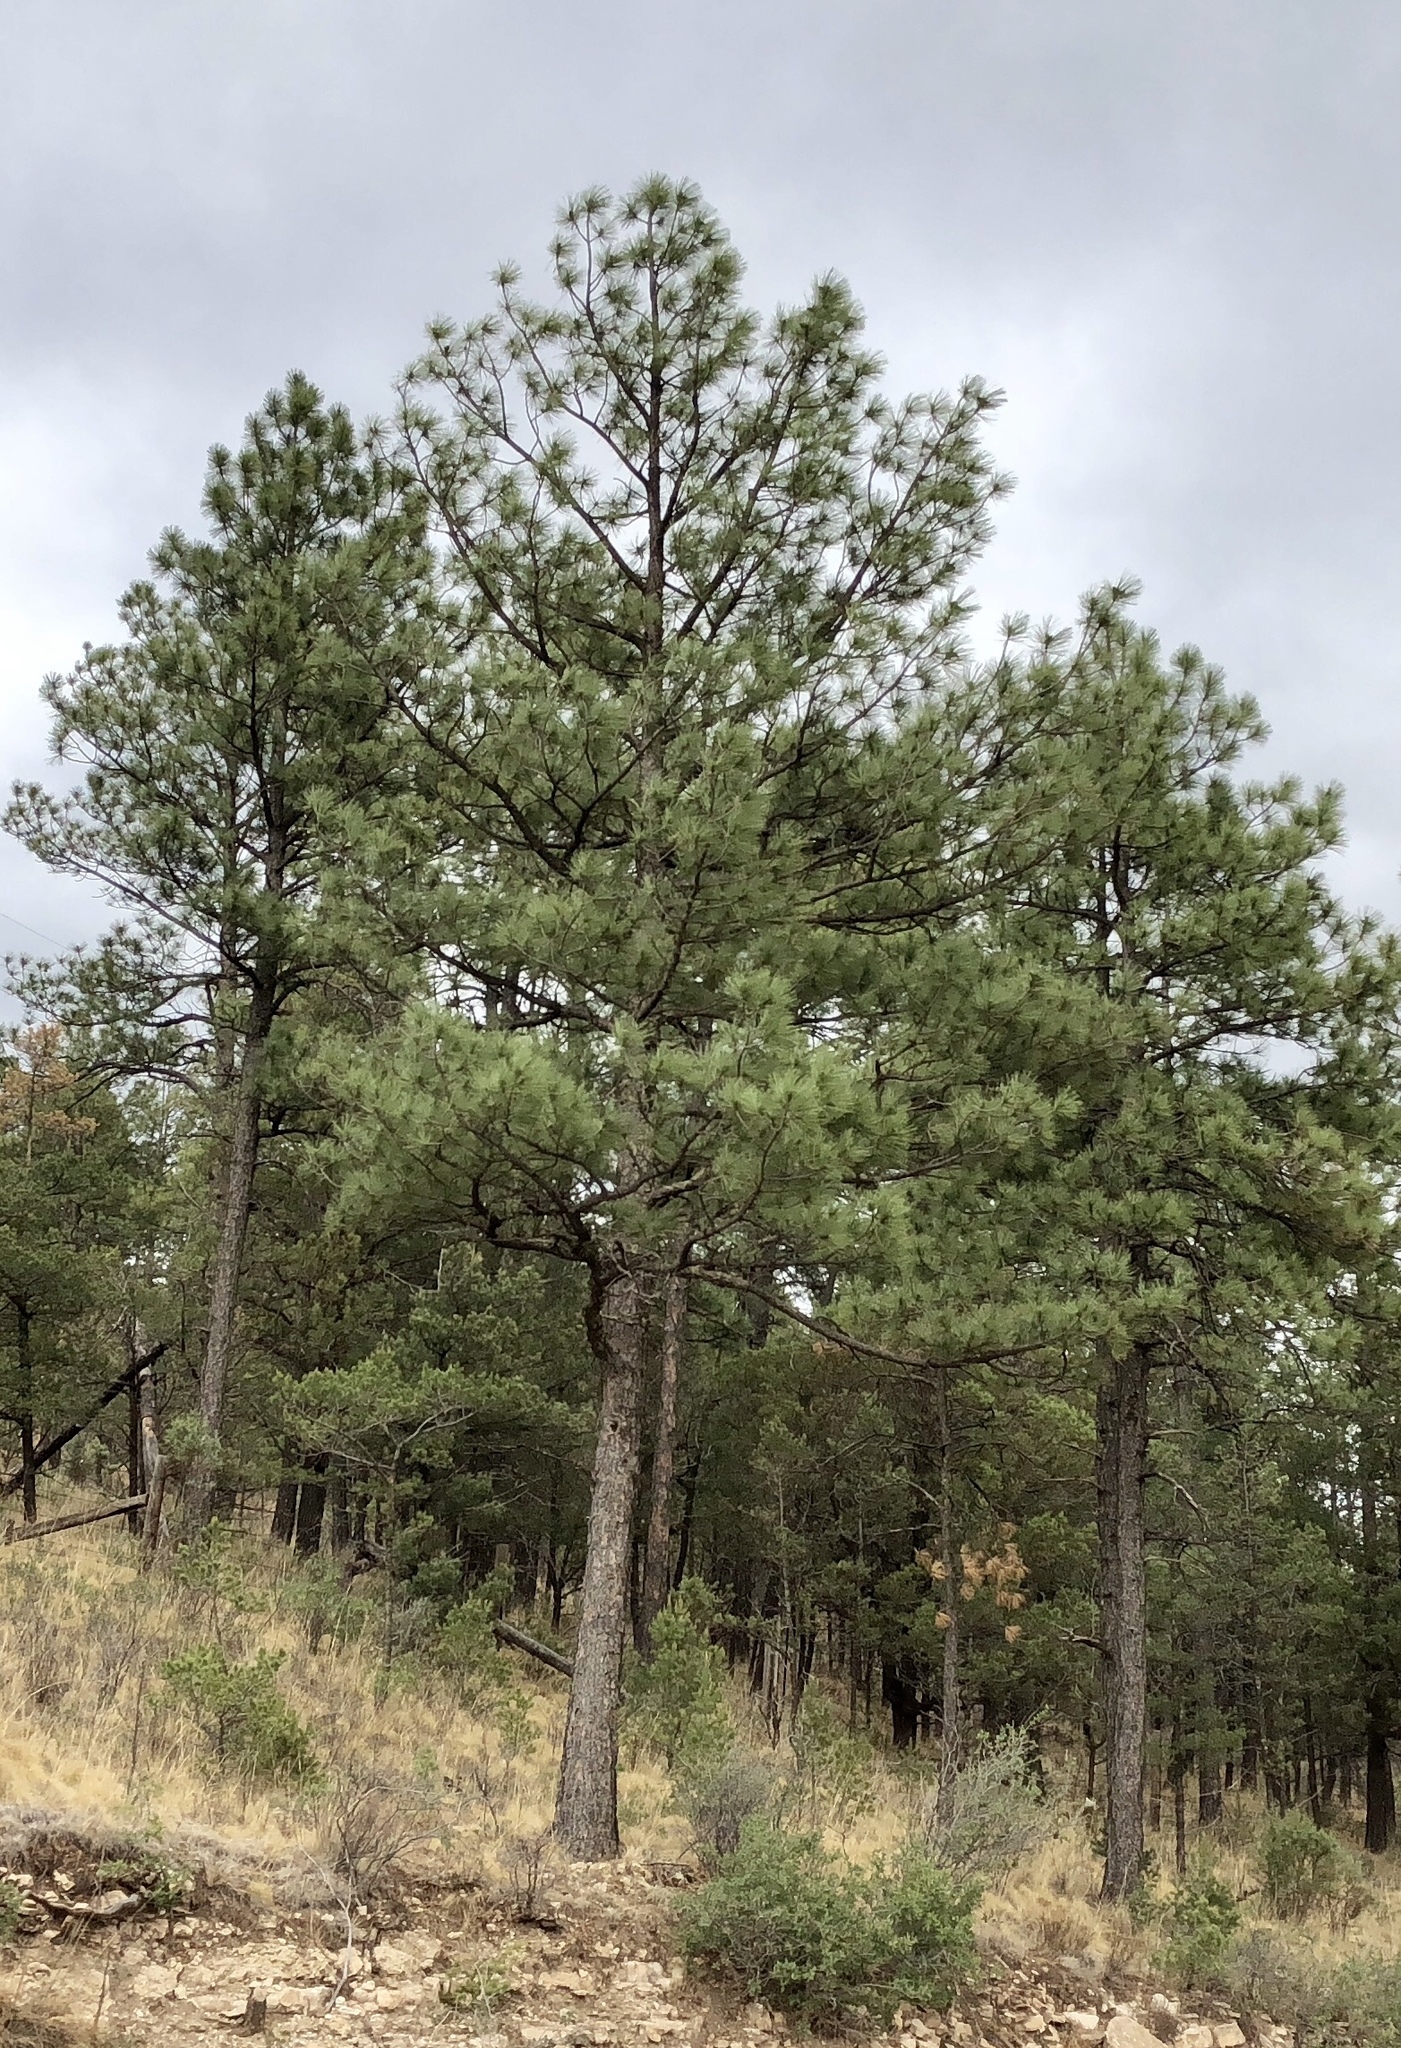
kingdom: Plantae
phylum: Tracheophyta
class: Pinopsida
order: Pinales
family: Pinaceae
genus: Pinus
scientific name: Pinus ponderosa
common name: Western yellow-pine
